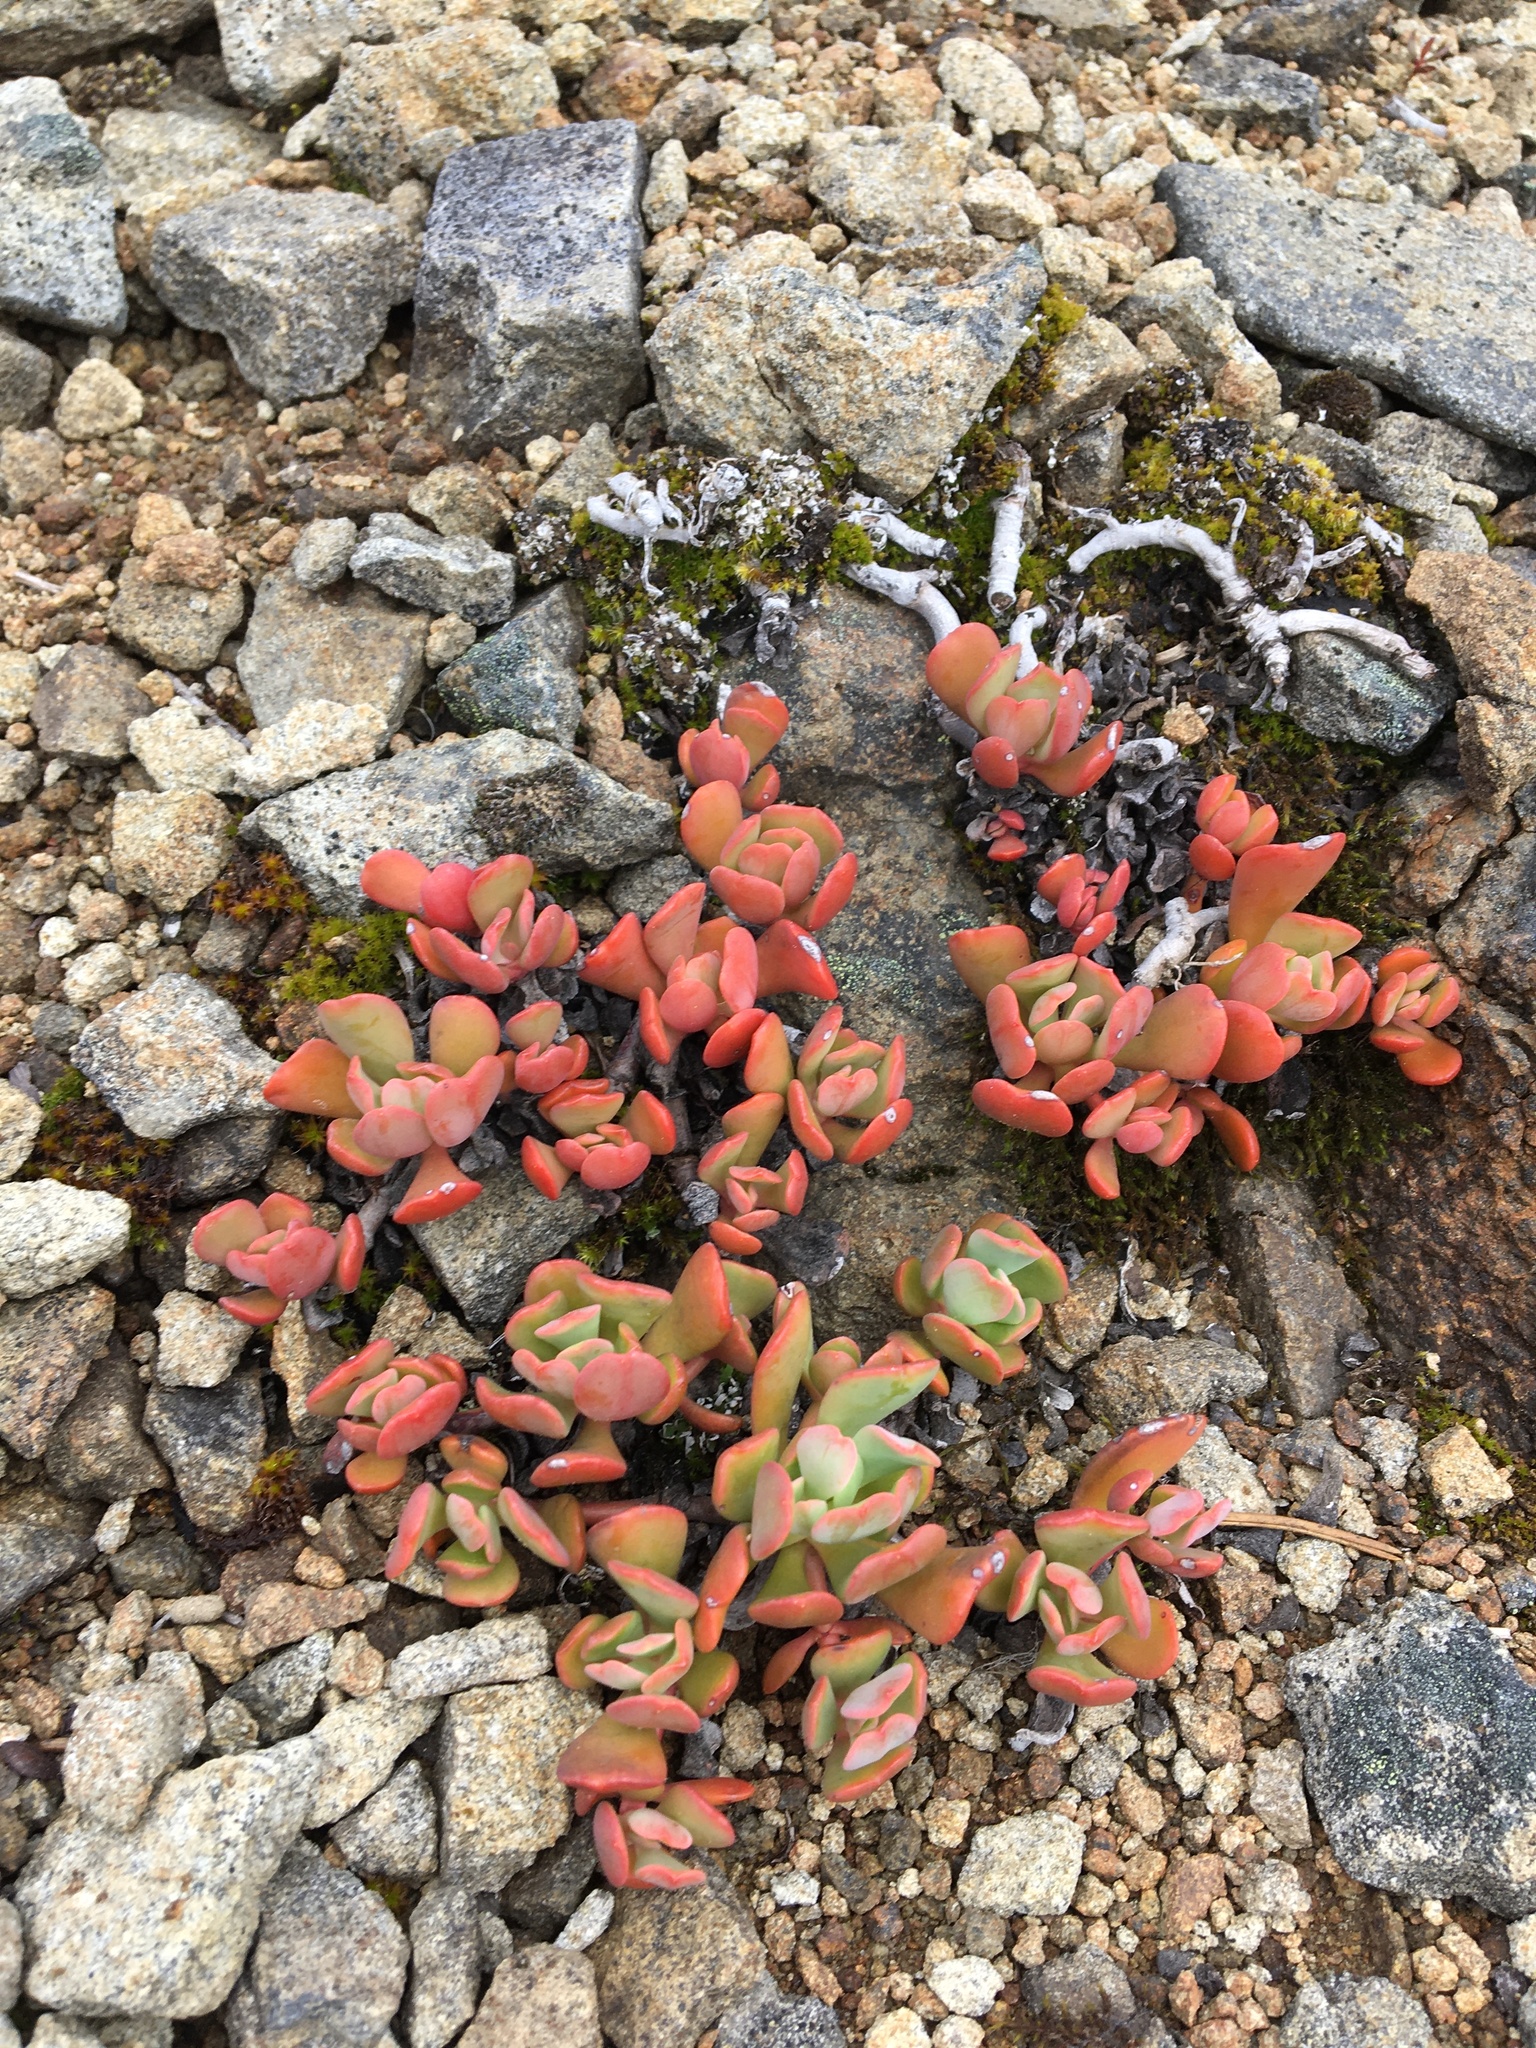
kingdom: Plantae
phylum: Tracheophyta
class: Magnoliopsida
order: Saxifragales
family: Crassulaceae
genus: Sedum
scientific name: Sedum oregonense
